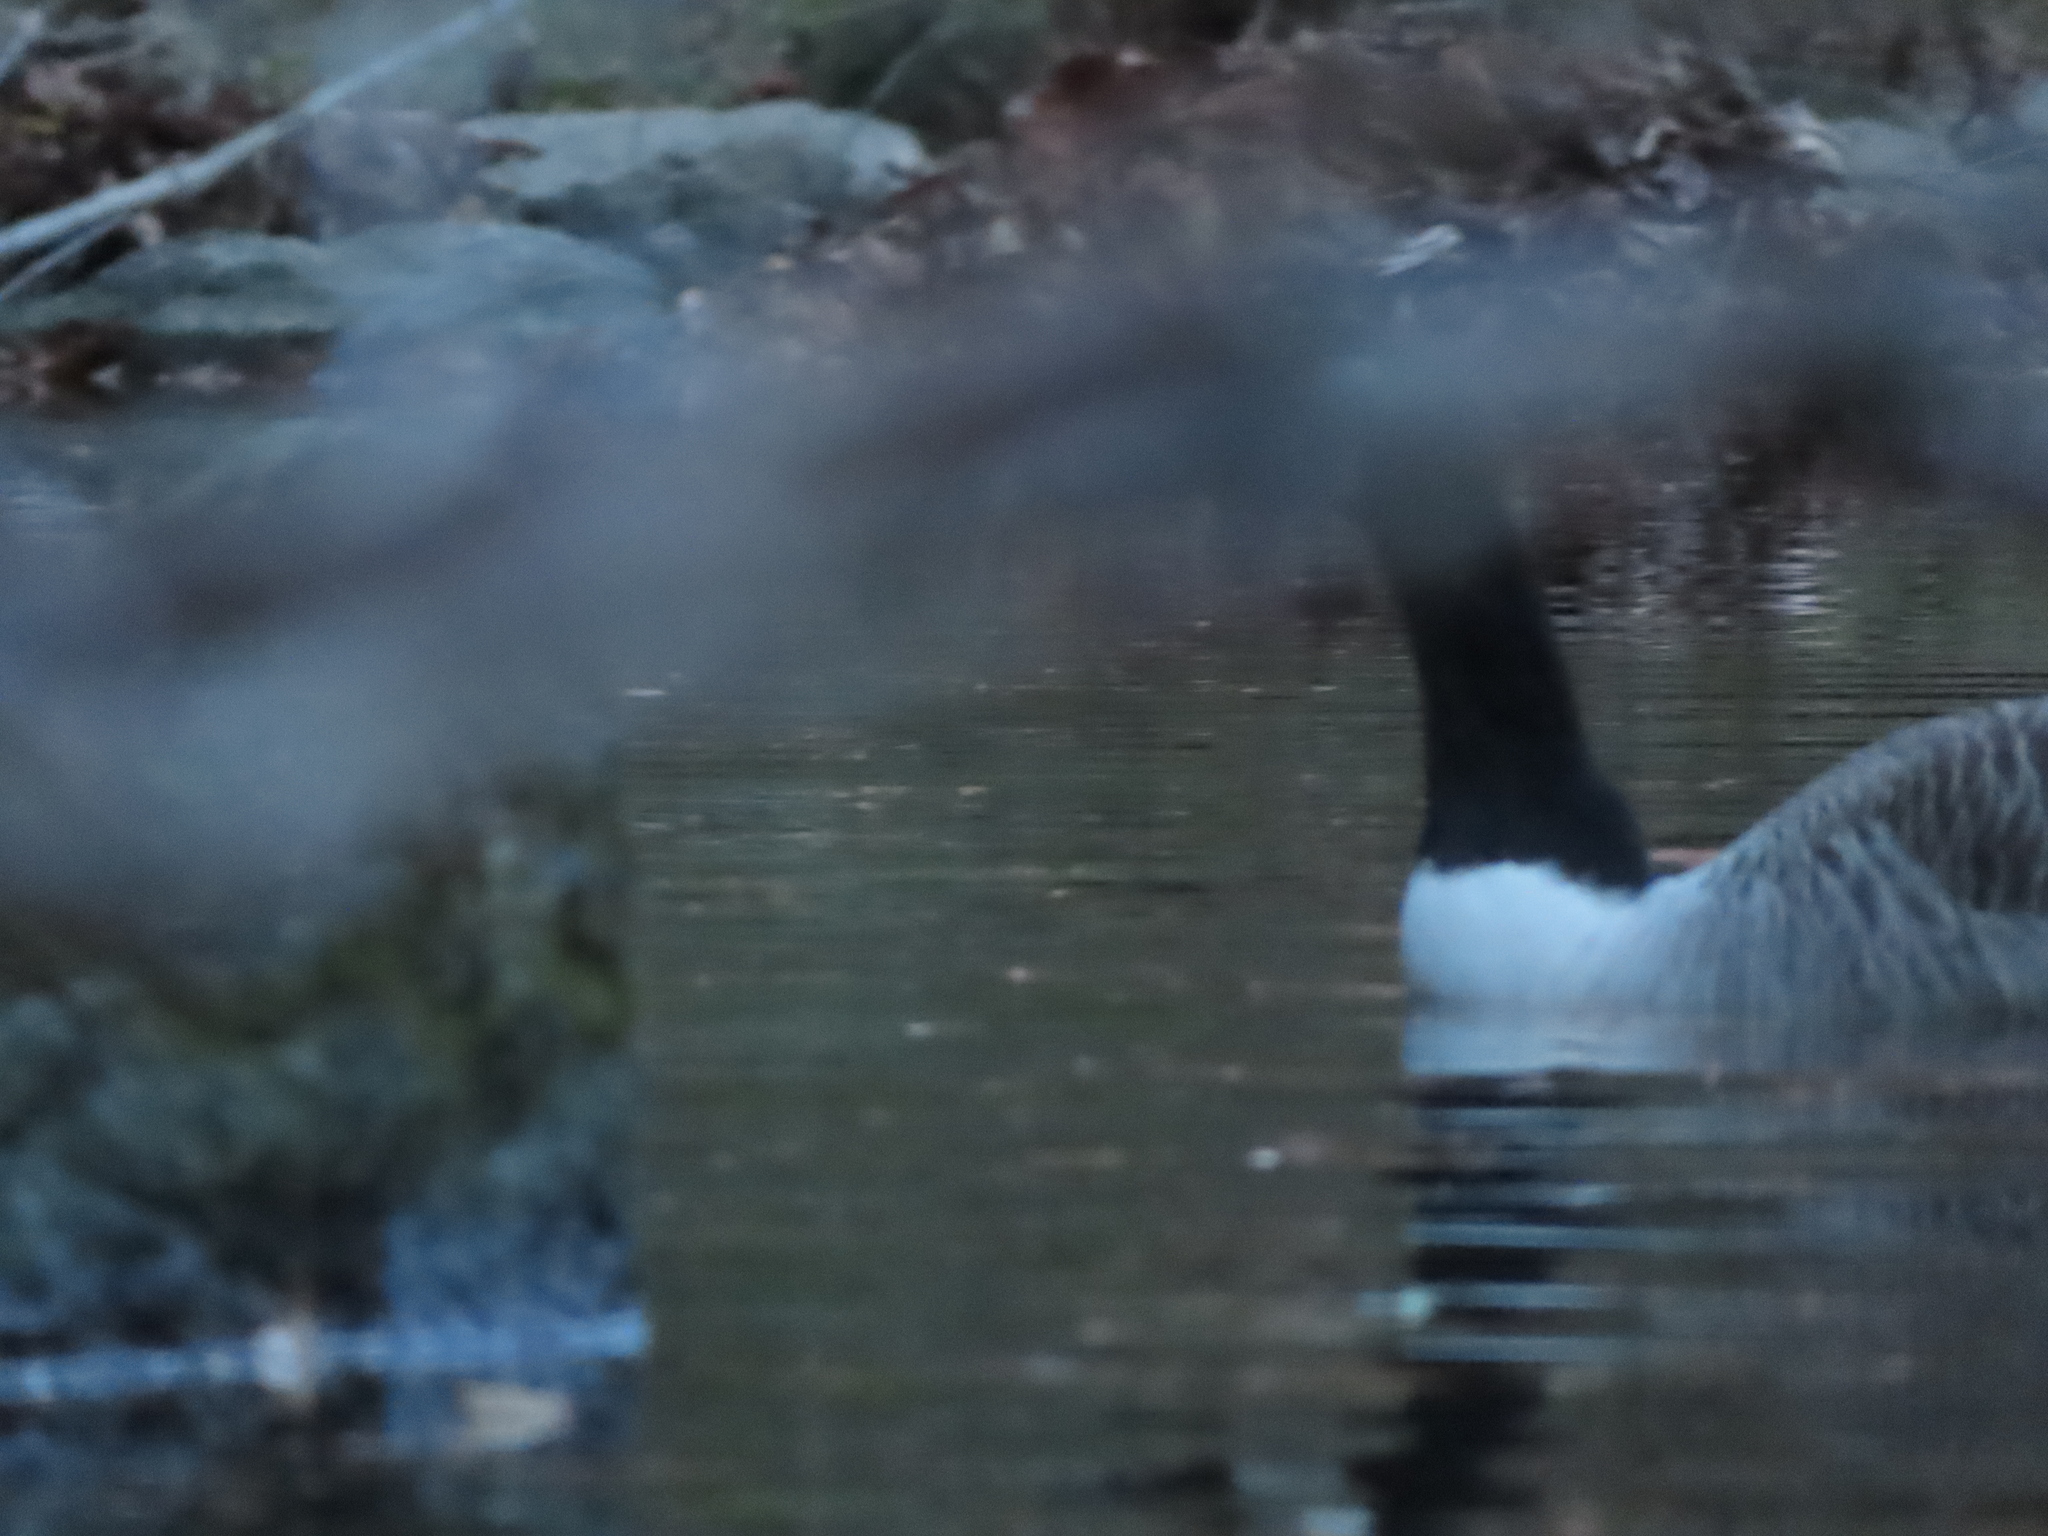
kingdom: Animalia
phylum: Chordata
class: Aves
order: Anseriformes
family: Anatidae
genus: Branta
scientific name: Branta canadensis
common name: Canada goose
